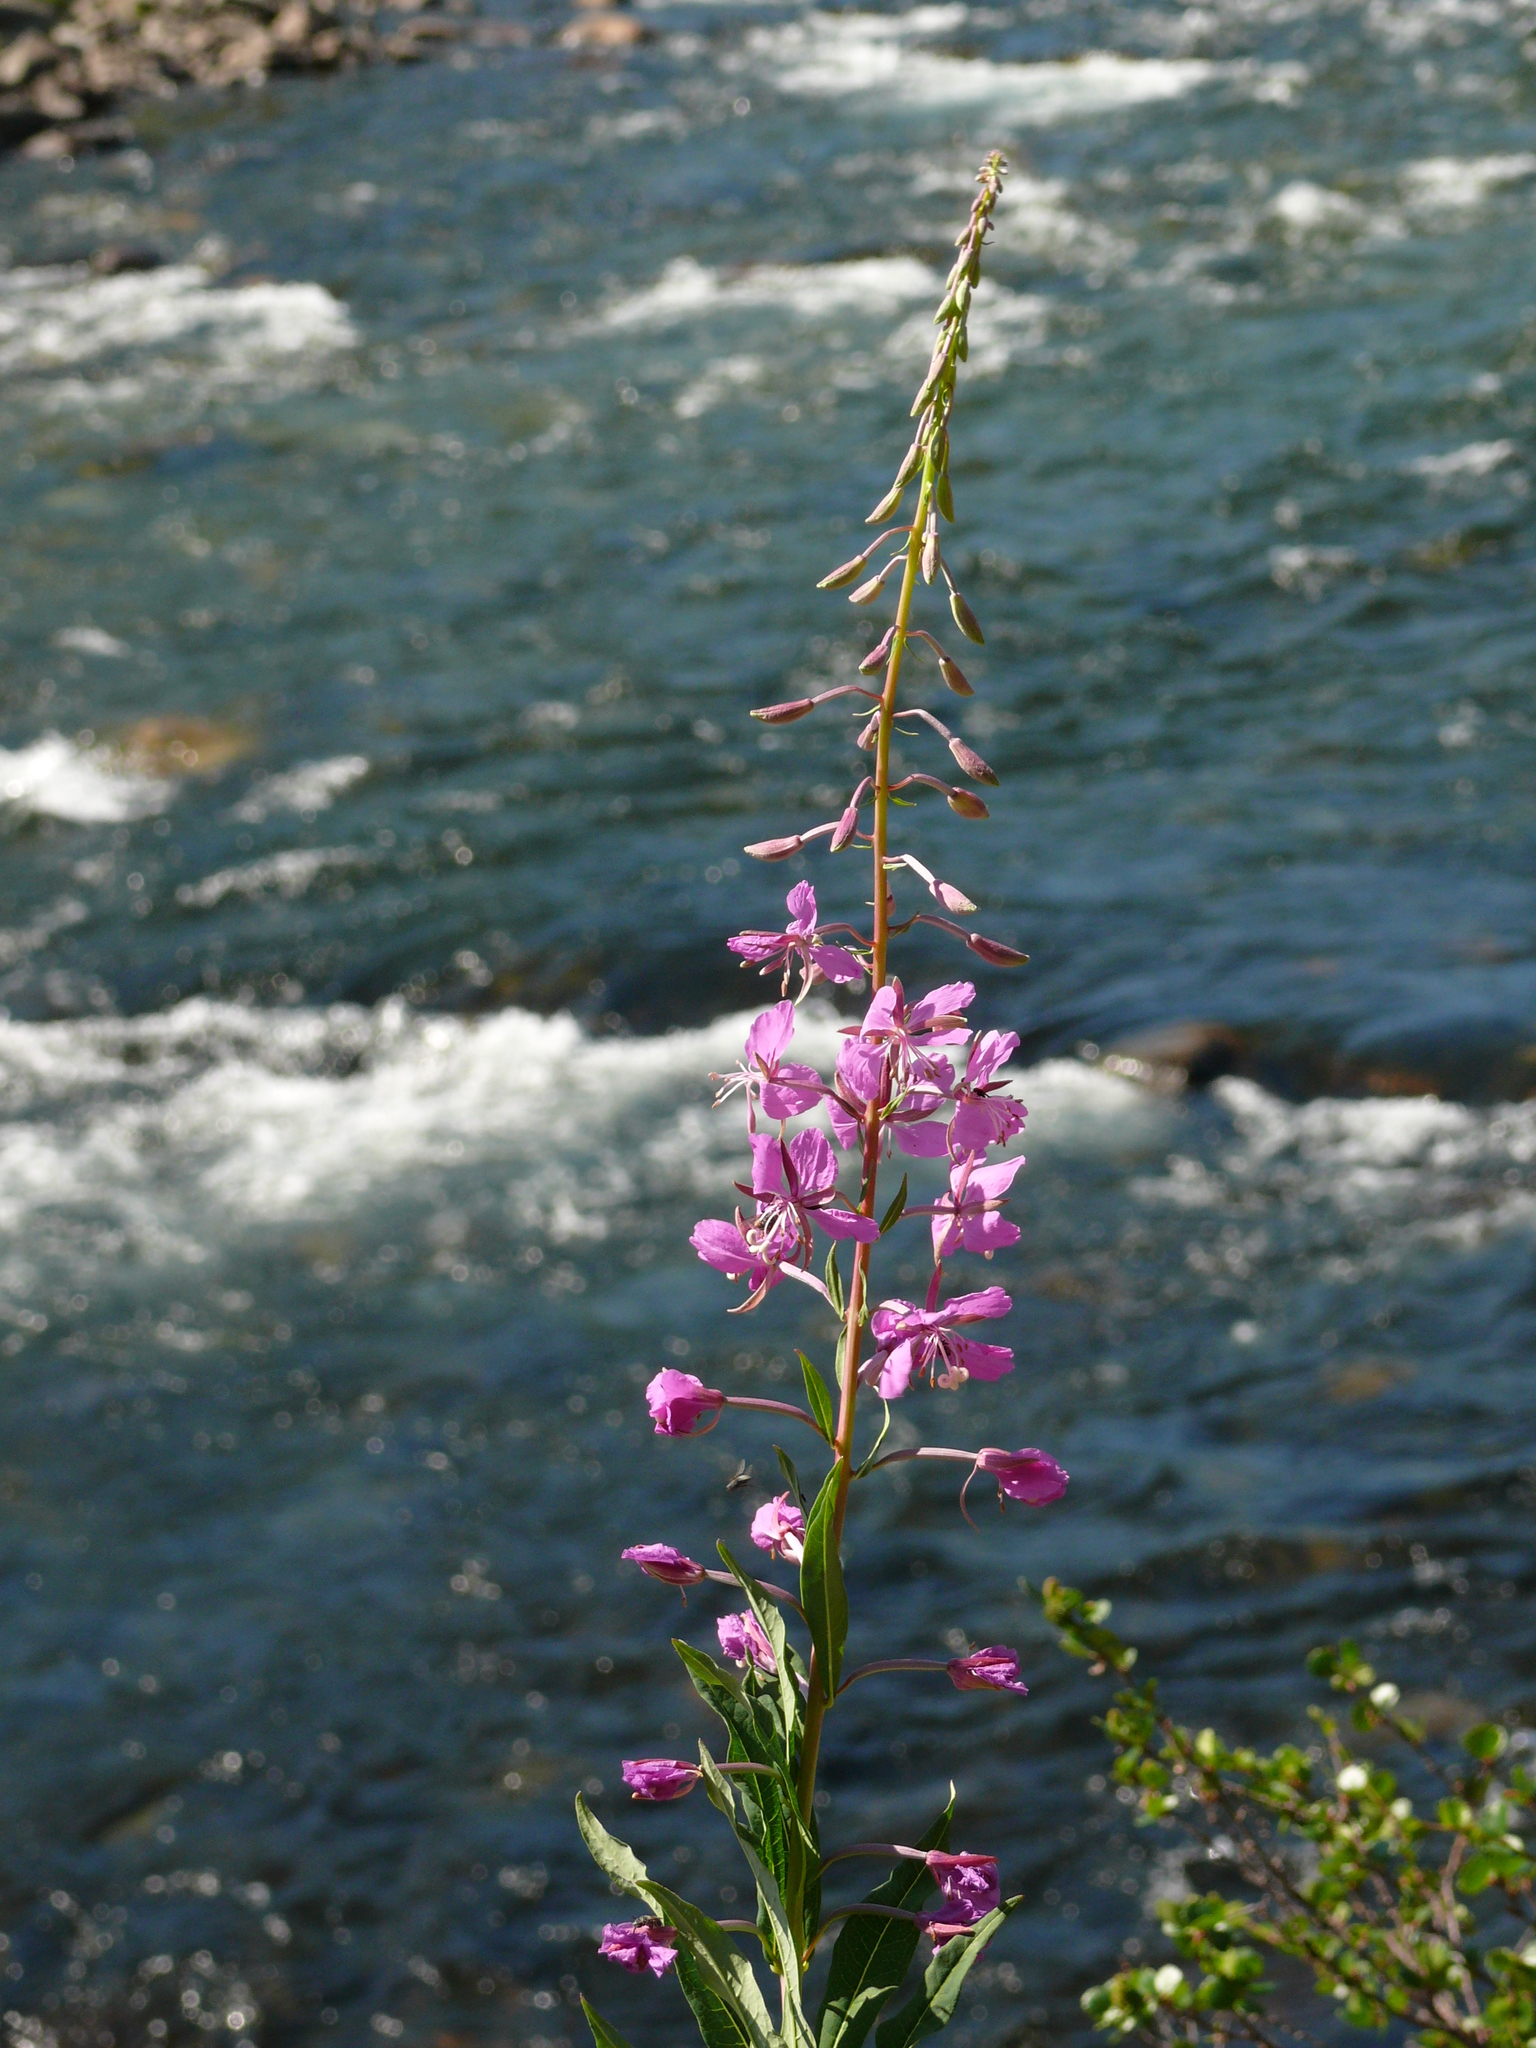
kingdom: Plantae
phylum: Tracheophyta
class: Magnoliopsida
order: Myrtales
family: Onagraceae
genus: Chamaenerion
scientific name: Chamaenerion angustifolium
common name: Fireweed
